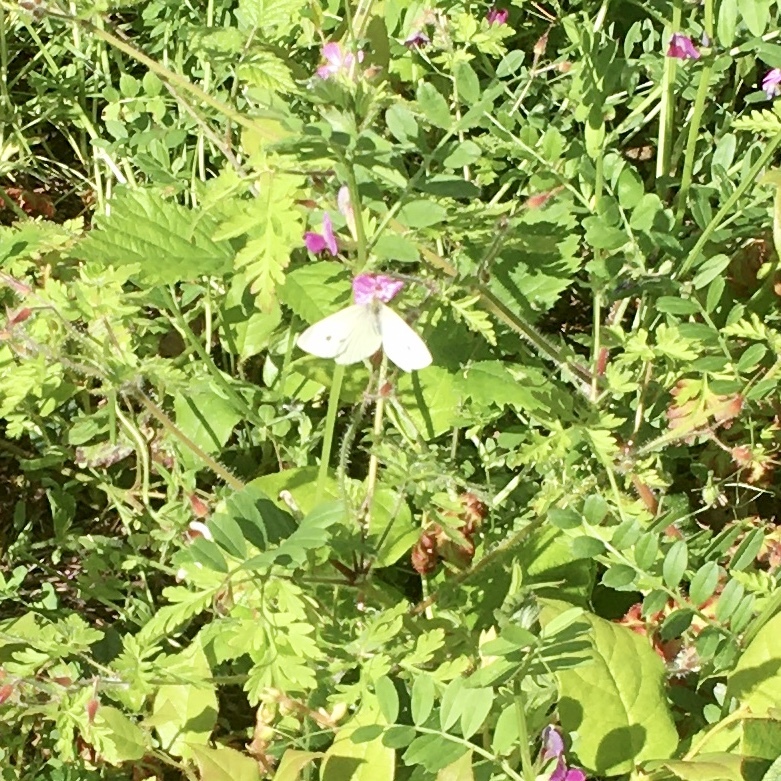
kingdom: Animalia
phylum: Arthropoda
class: Insecta
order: Lepidoptera
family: Pieridae
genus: Pieris
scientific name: Pieris rapae
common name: Small white
